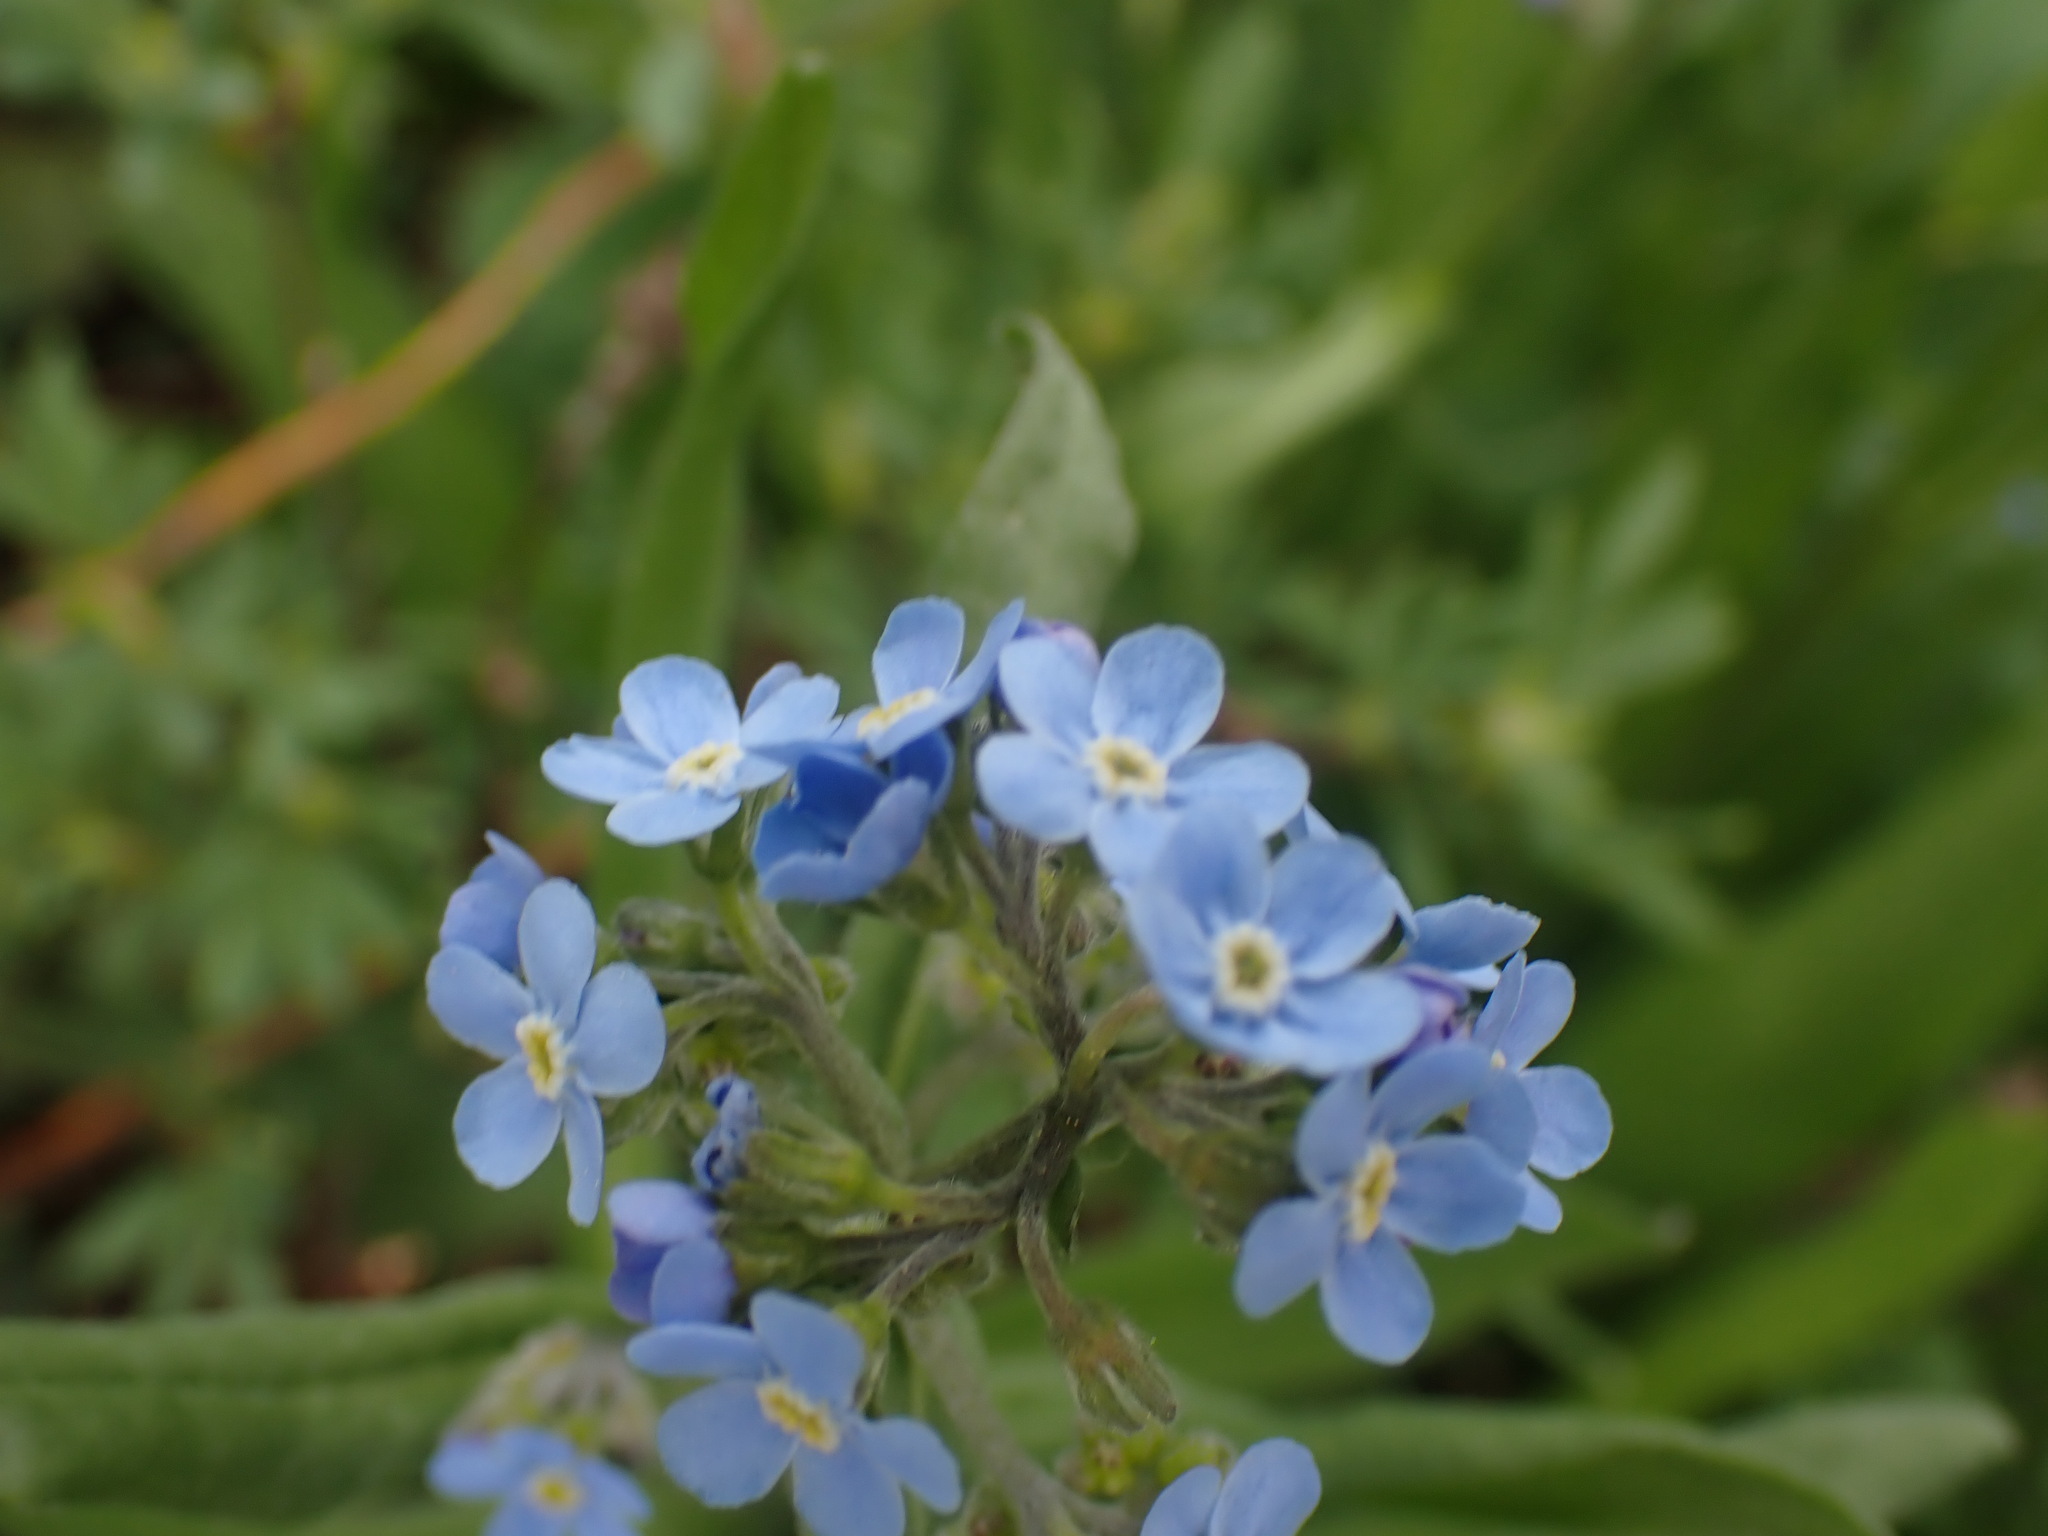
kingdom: Plantae
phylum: Tracheophyta
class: Magnoliopsida
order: Boraginales
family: Boraginaceae
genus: Myosotis
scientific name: Myosotis asiatica
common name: Asian forget-me-not
